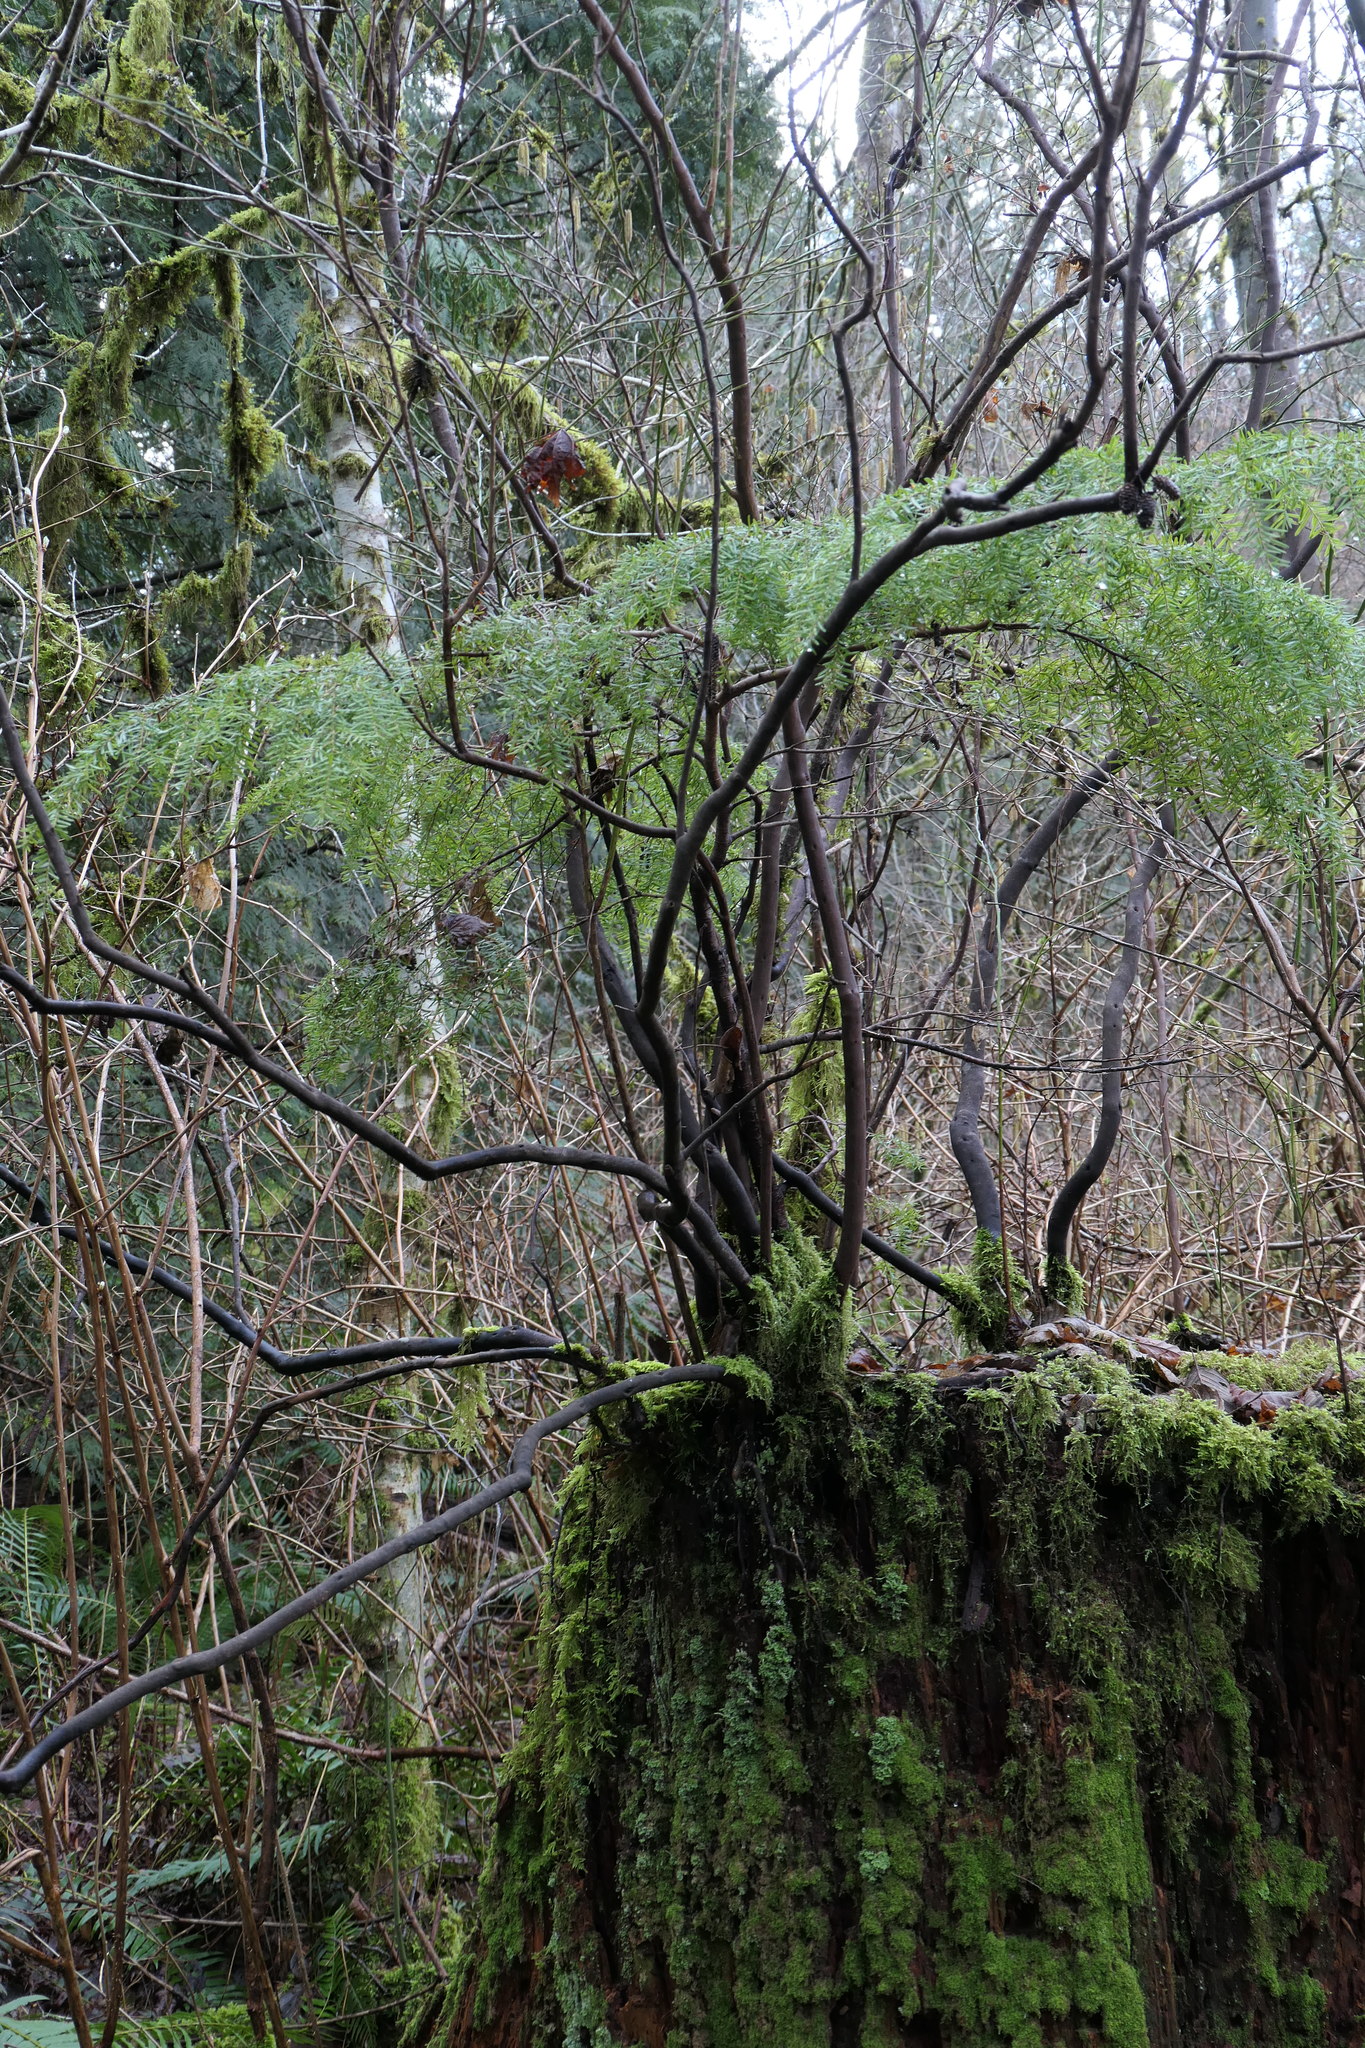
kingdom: Plantae
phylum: Tracheophyta
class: Pinopsida
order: Pinales
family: Pinaceae
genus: Tsuga
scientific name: Tsuga heterophylla
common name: Western hemlock
